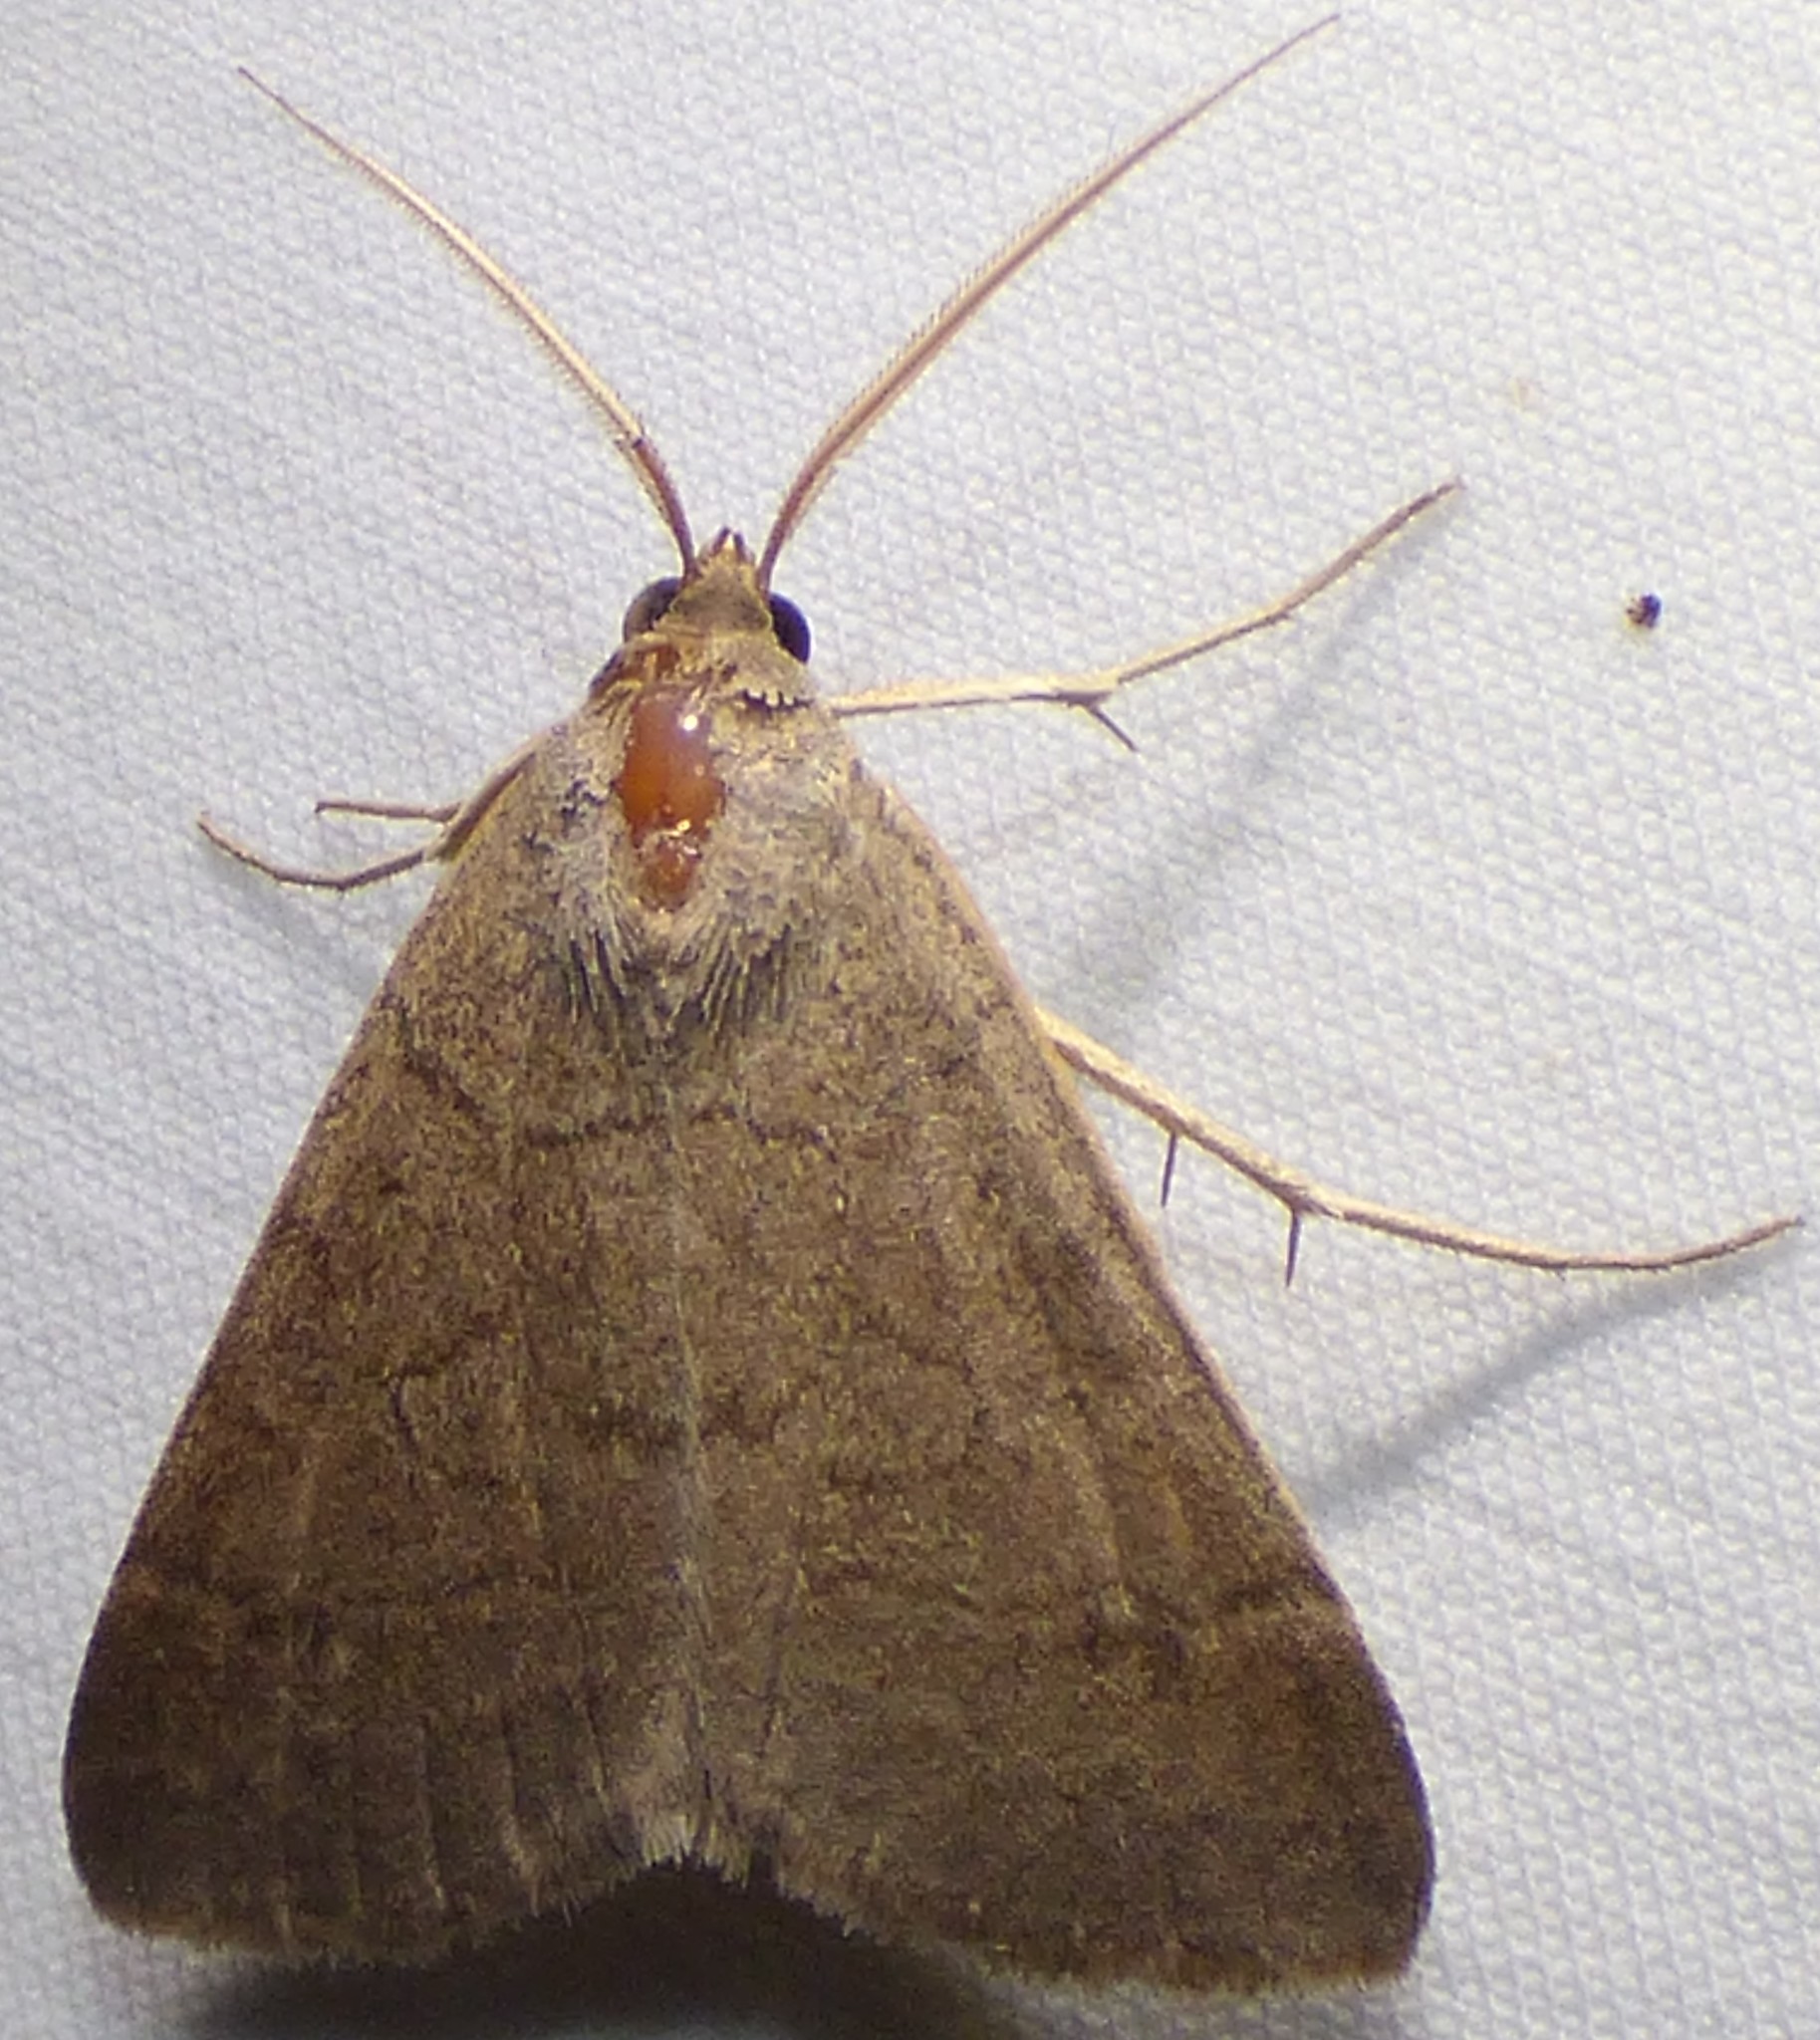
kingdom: Animalia
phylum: Arthropoda
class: Insecta
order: Lepidoptera
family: Erebidae
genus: Caenurgia
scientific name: Caenurgia chloropha
